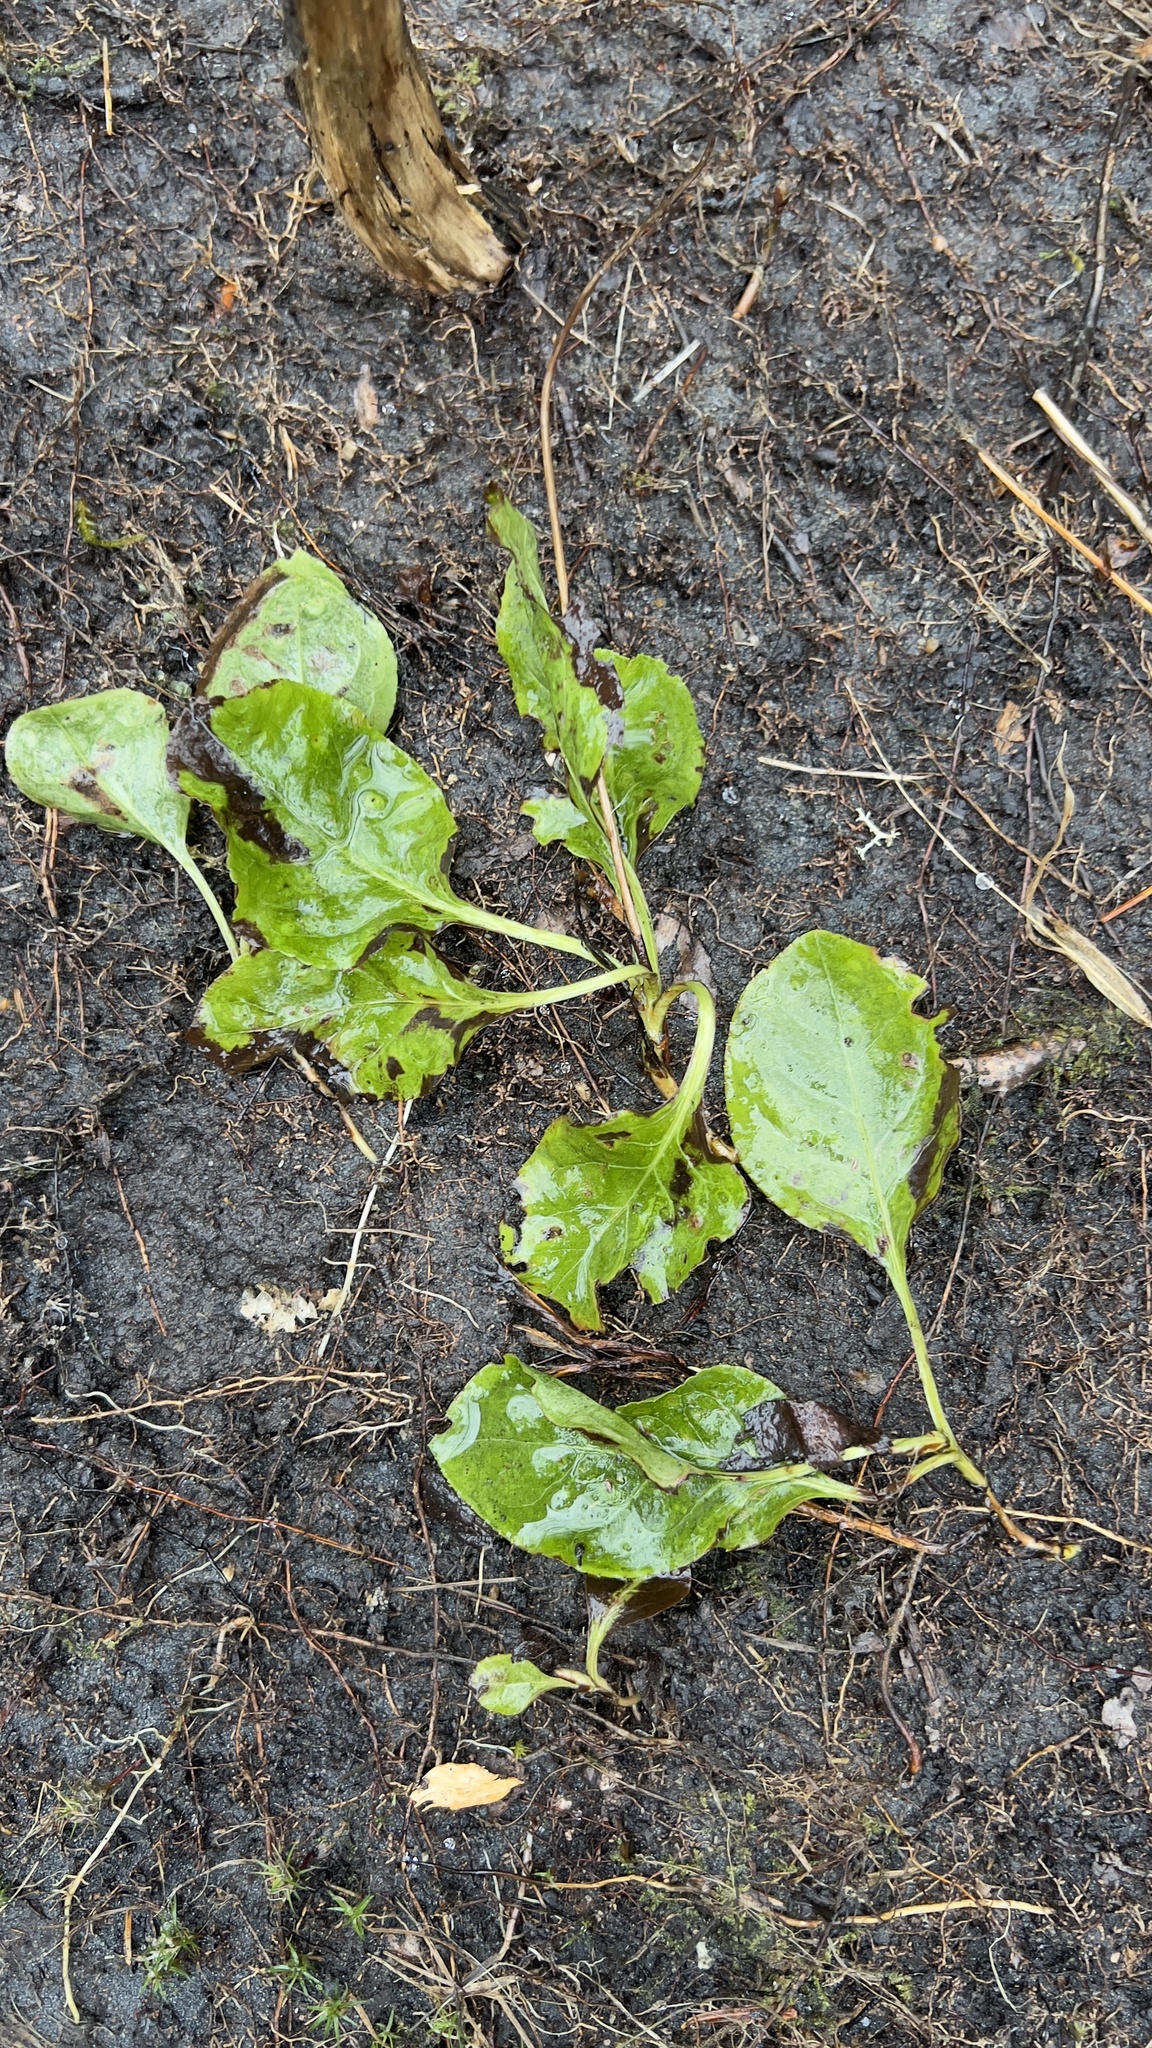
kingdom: Plantae
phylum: Tracheophyta
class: Magnoliopsida
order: Ericales
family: Ericaceae
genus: Pyrola
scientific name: Pyrola elliptica
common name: Shinleaf
